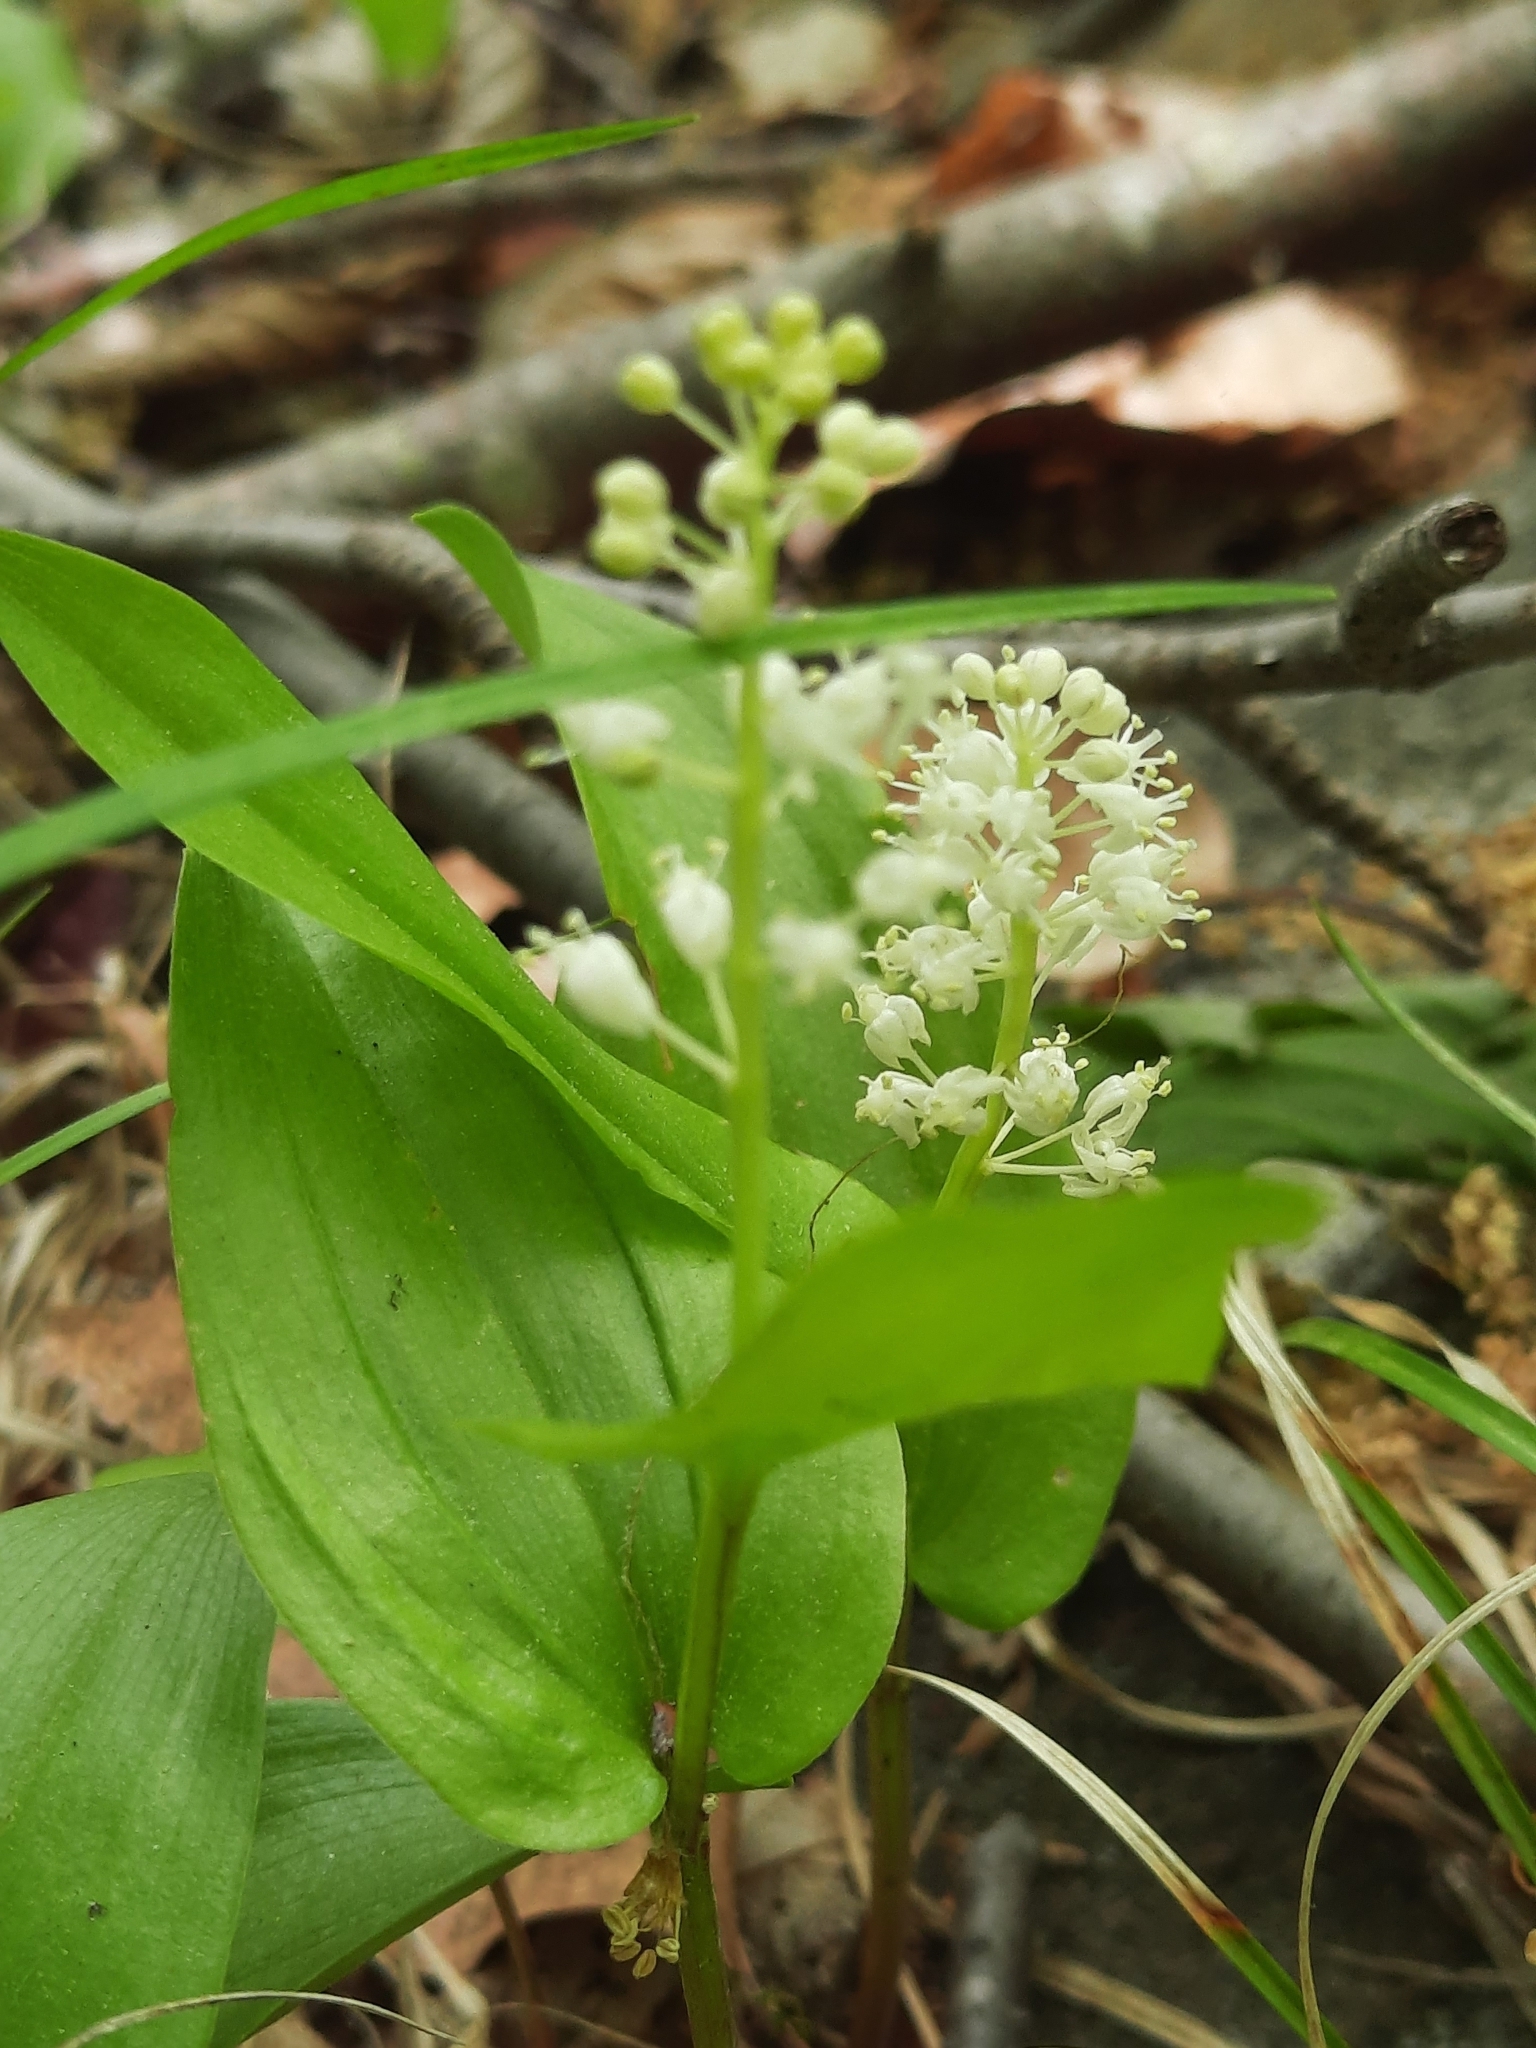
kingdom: Plantae
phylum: Tracheophyta
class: Liliopsida
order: Asparagales
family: Asparagaceae
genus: Maianthemum
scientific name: Maianthemum canadense
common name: False lily-of-the-valley
